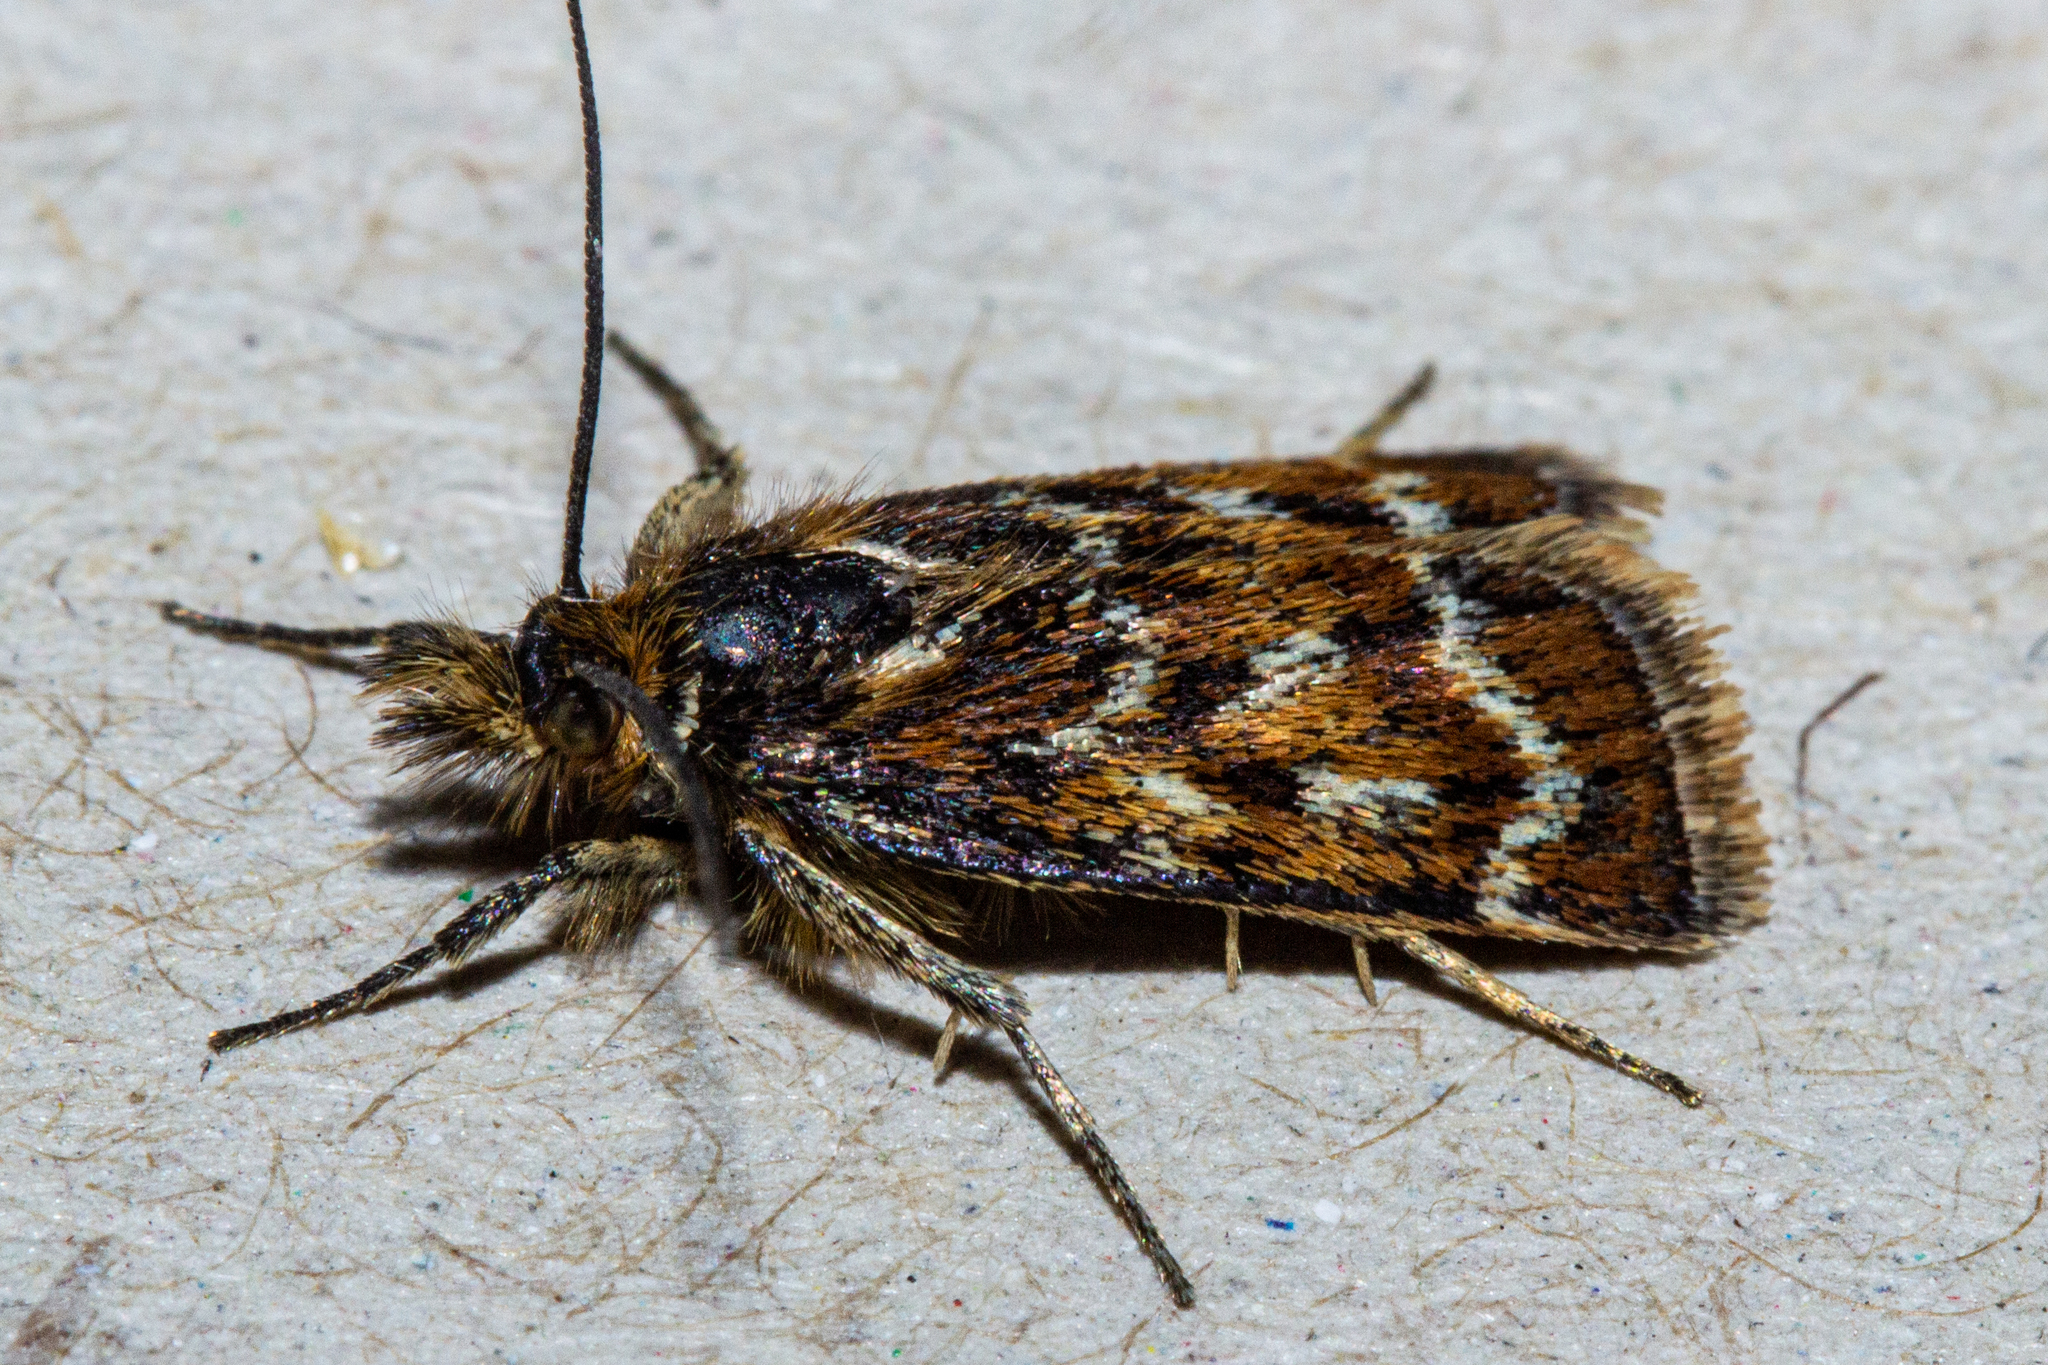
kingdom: Animalia
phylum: Arthropoda
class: Insecta
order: Lepidoptera
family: Crambidae
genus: Orocrambus
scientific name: Orocrambus scoparioides
